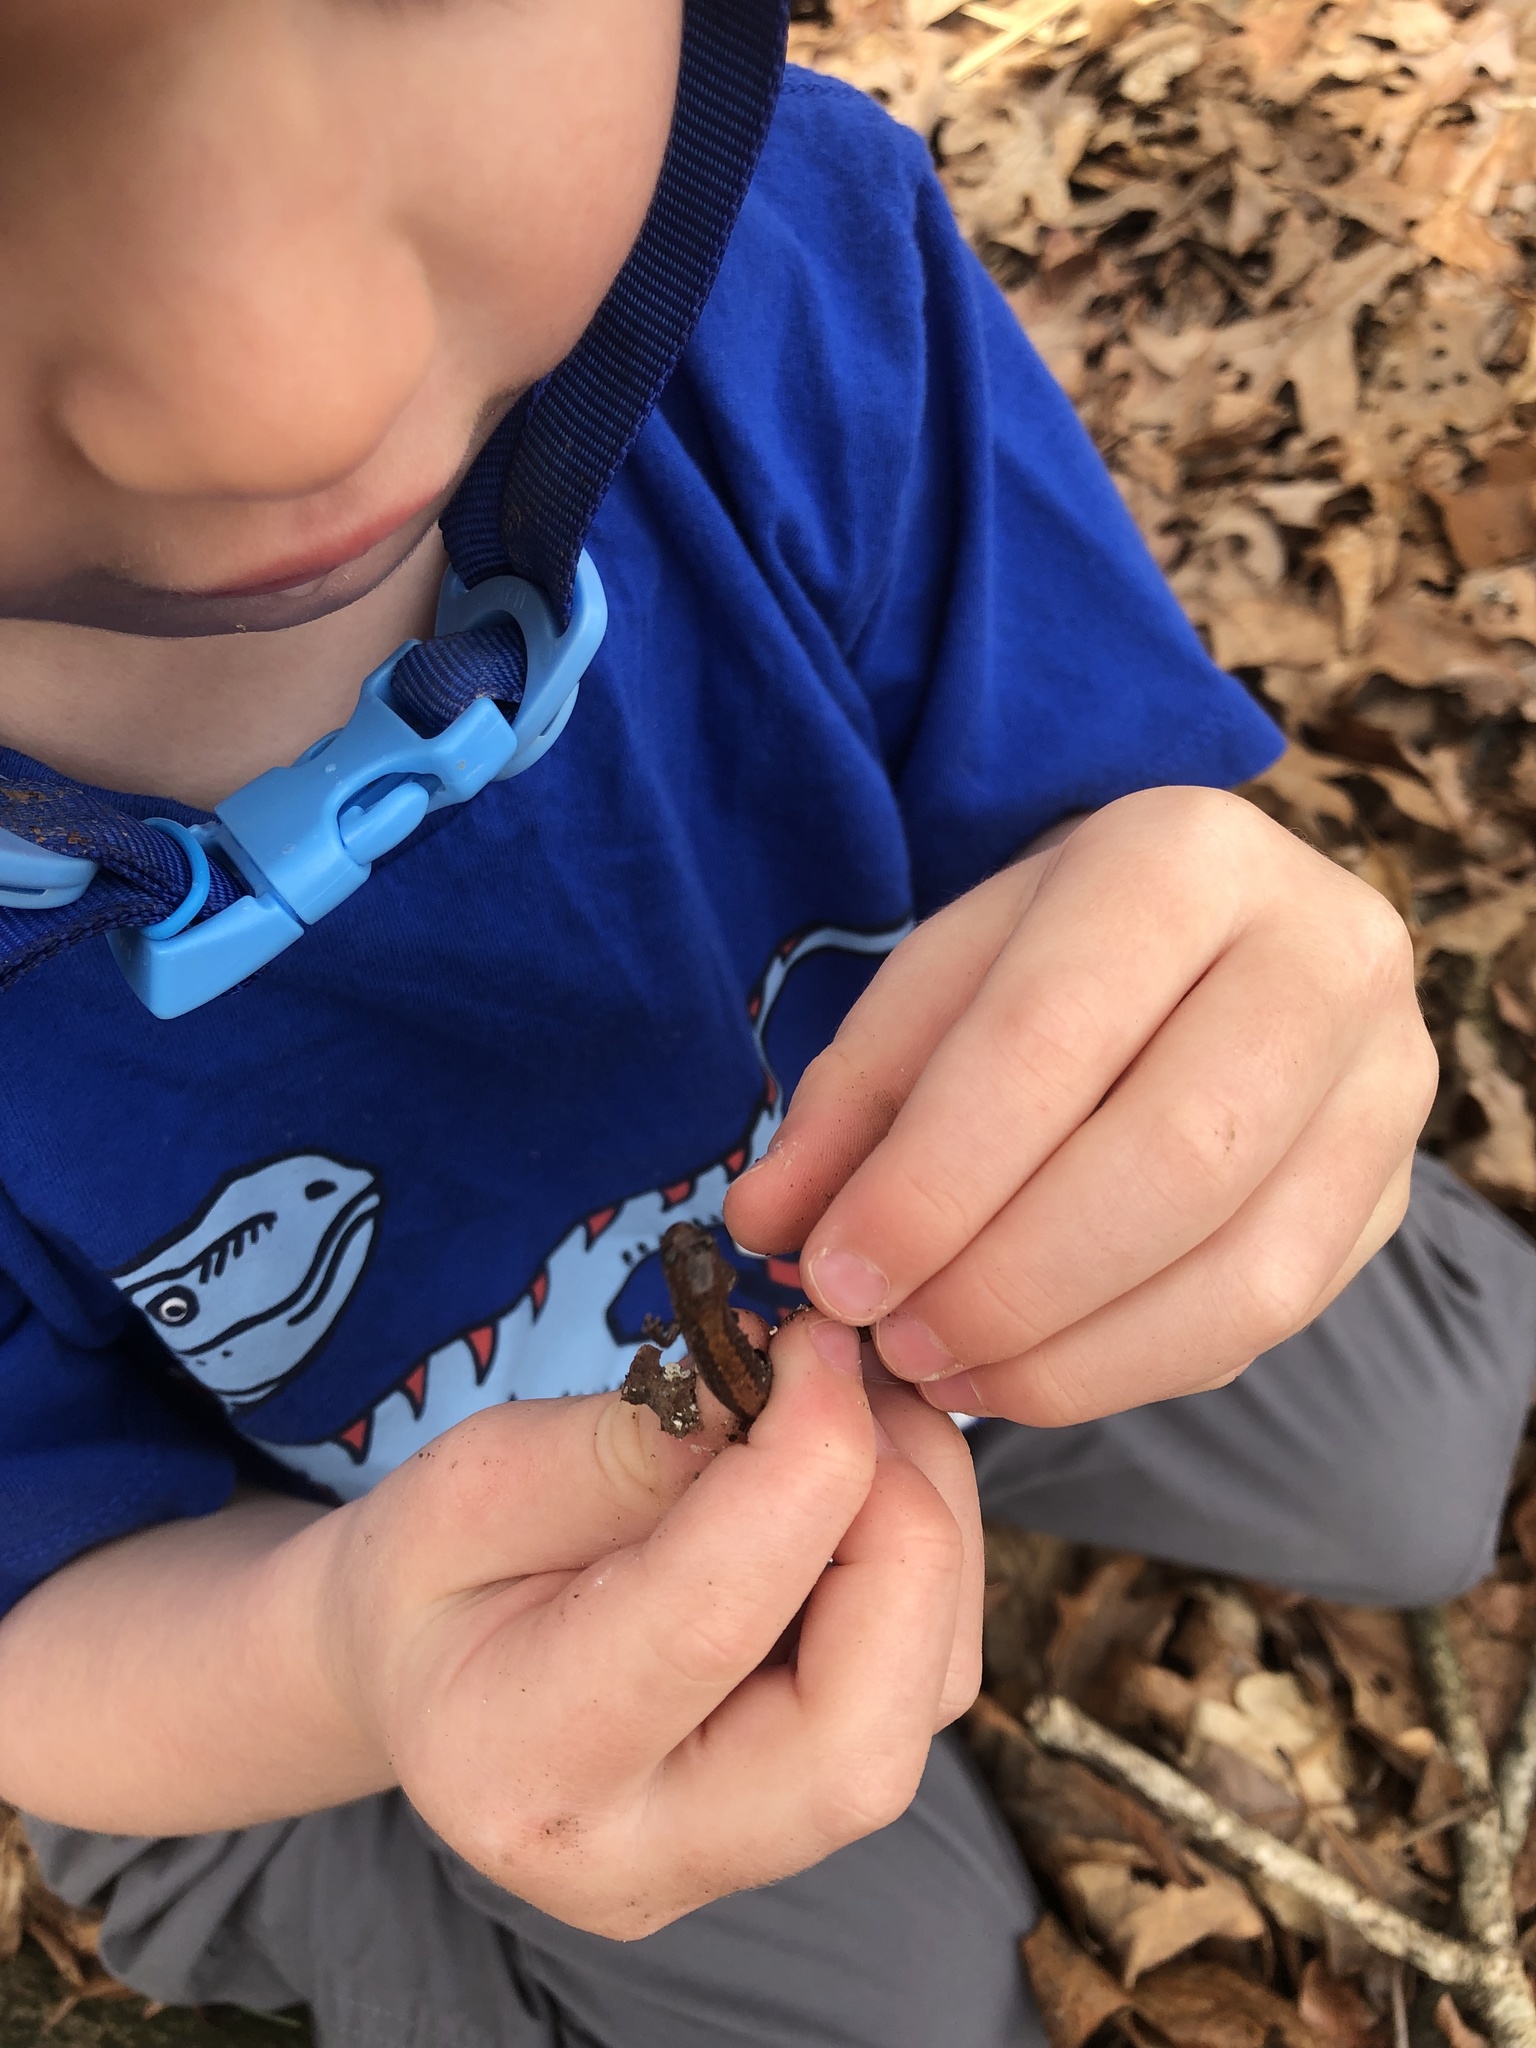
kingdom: Animalia
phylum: Chordata
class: Amphibia
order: Caudata
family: Plethodontidae
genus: Plethodon
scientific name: Plethodon cinereus
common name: Redback salamander
